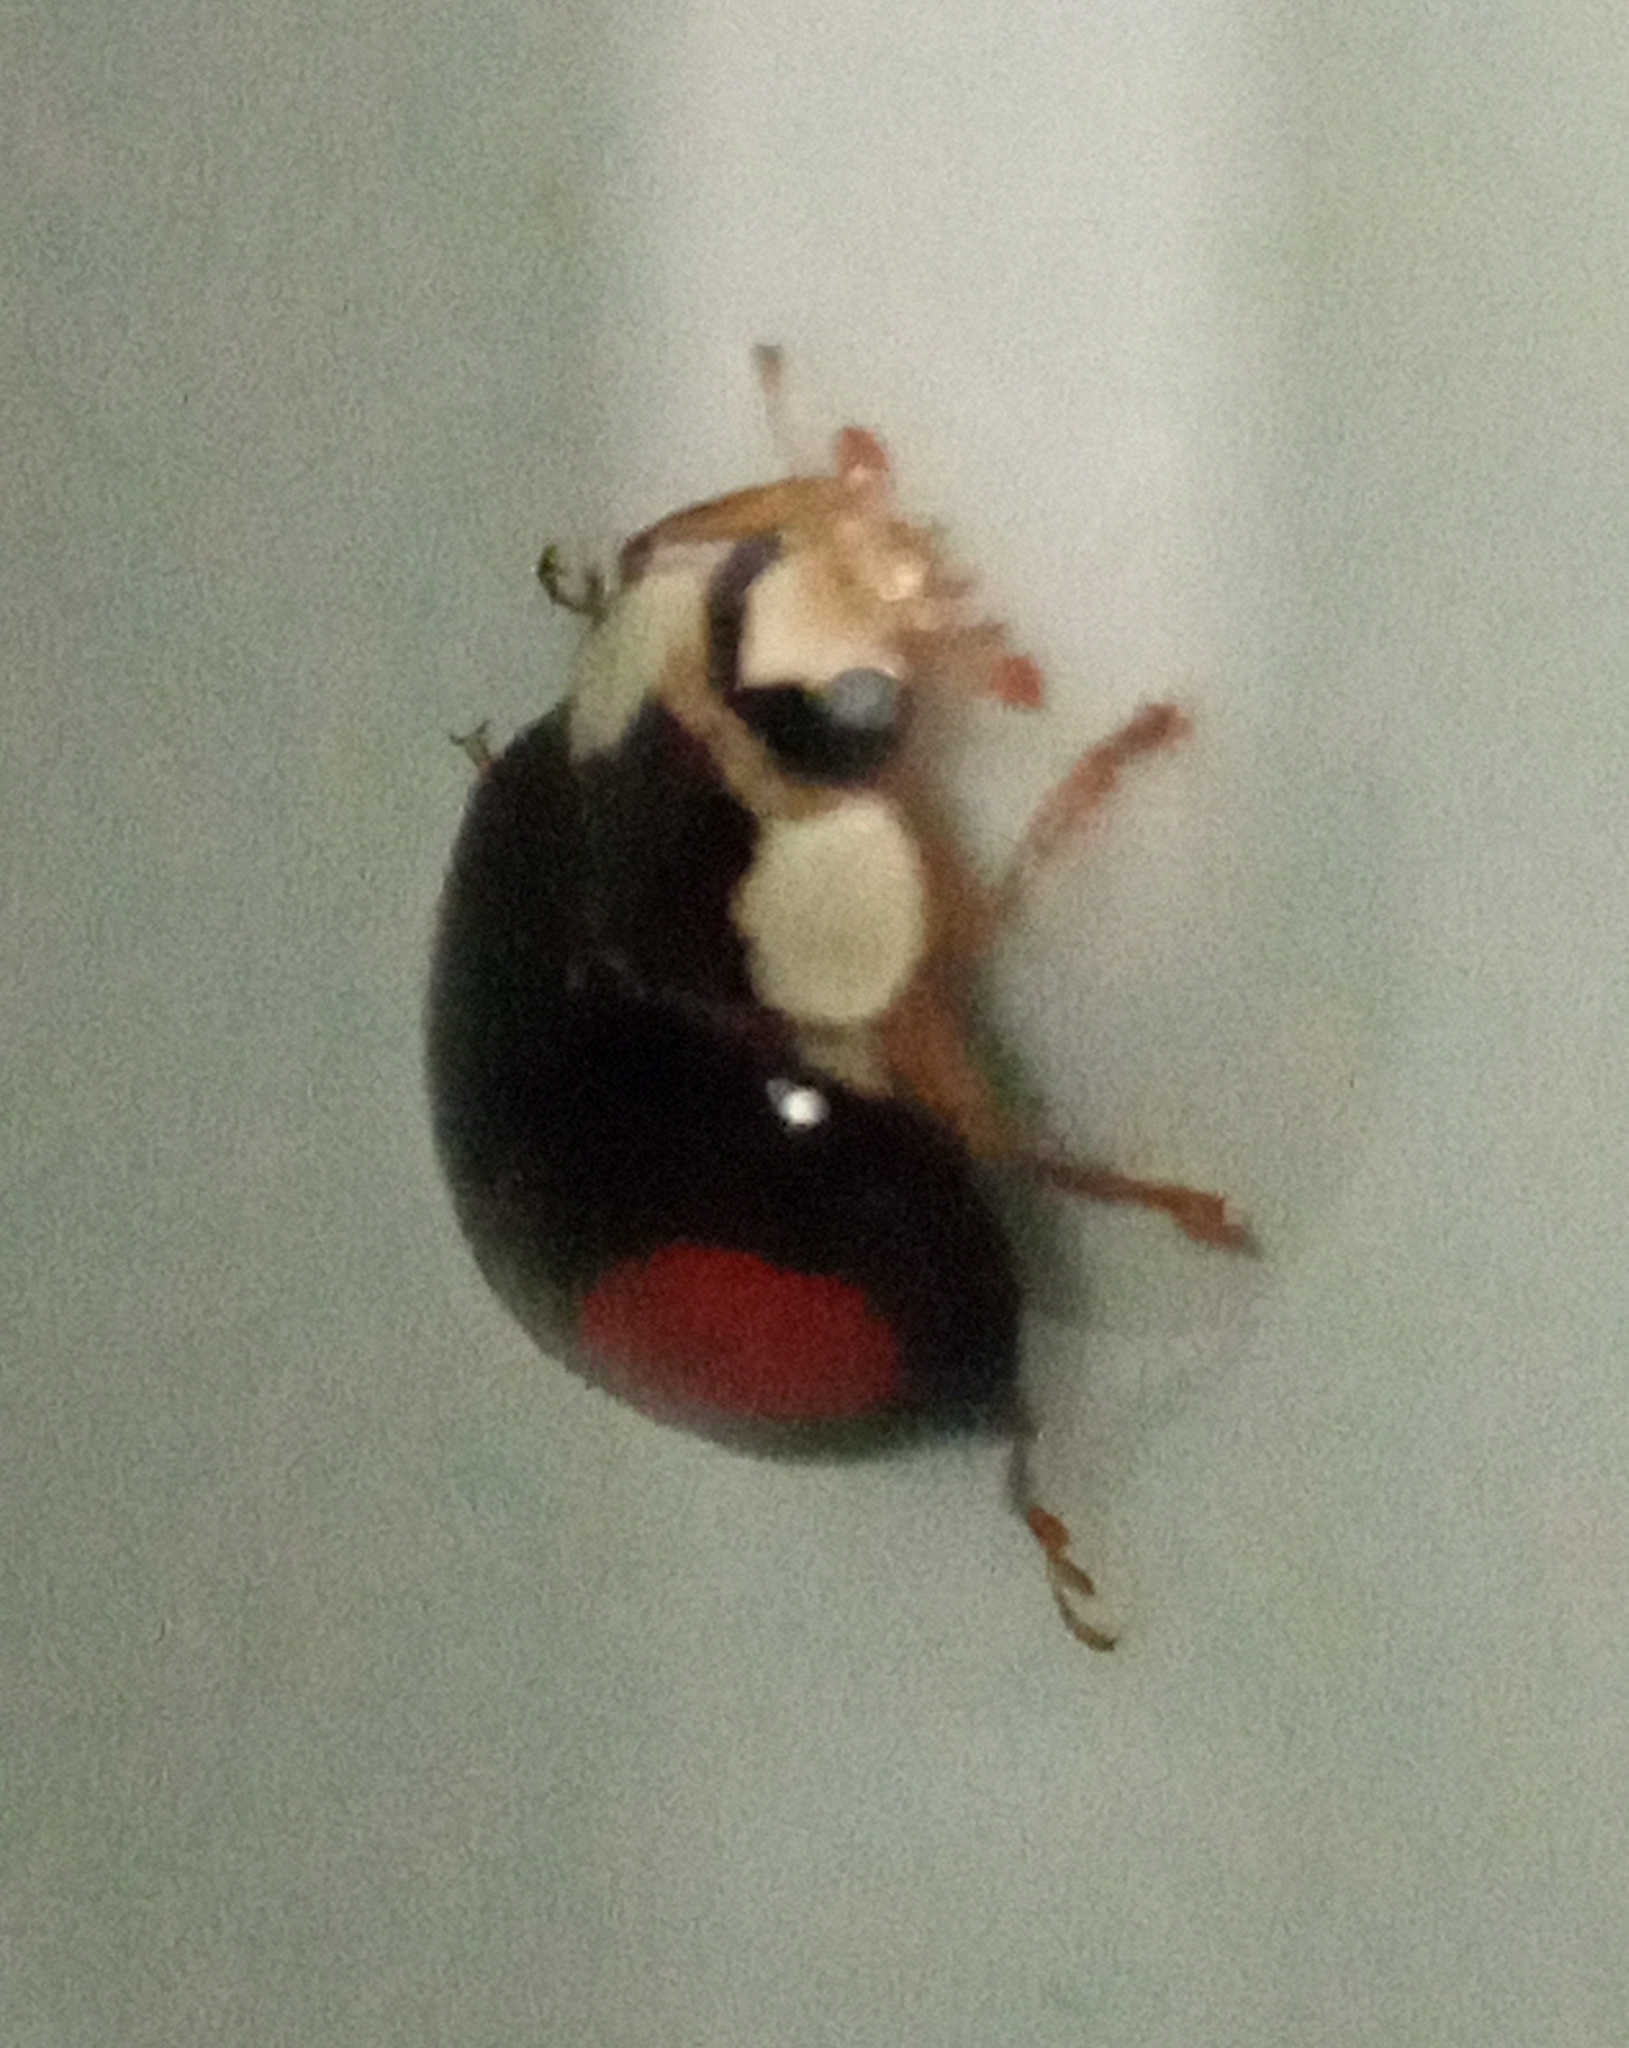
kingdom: Animalia
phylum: Arthropoda
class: Insecta
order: Coleoptera
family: Coccinellidae
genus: Harmonia
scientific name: Harmonia axyridis
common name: Harlequin ladybird
